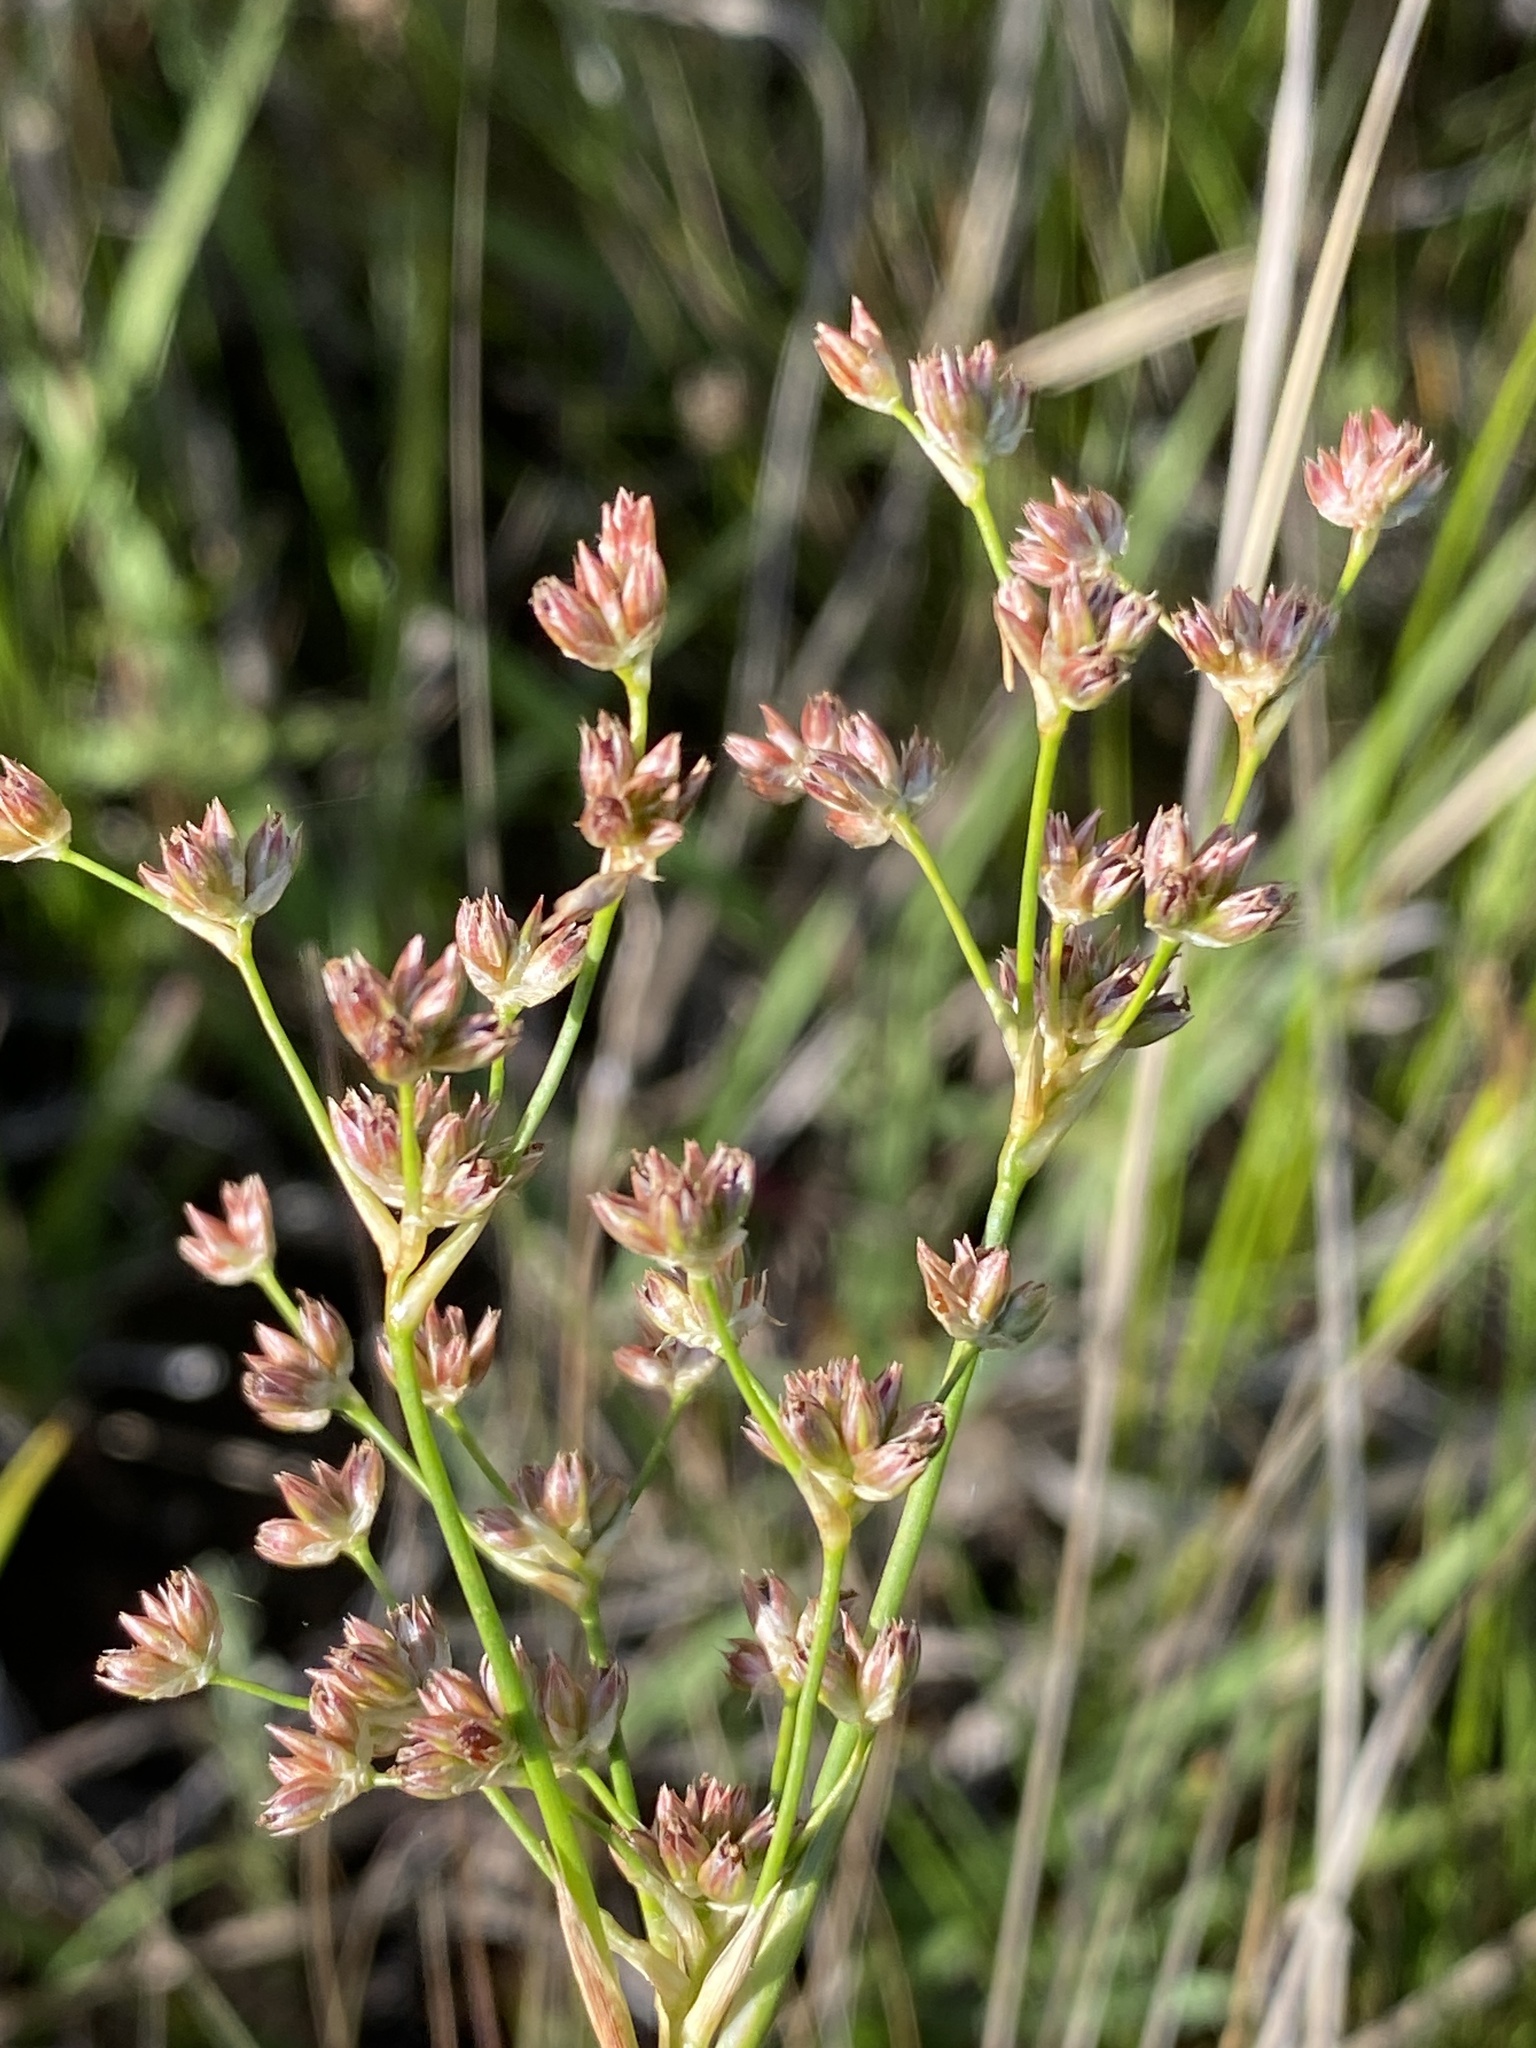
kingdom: Plantae
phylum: Tracheophyta
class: Liliopsida
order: Poales
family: Juncaceae
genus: Juncus
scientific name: Juncus oxycarpus
